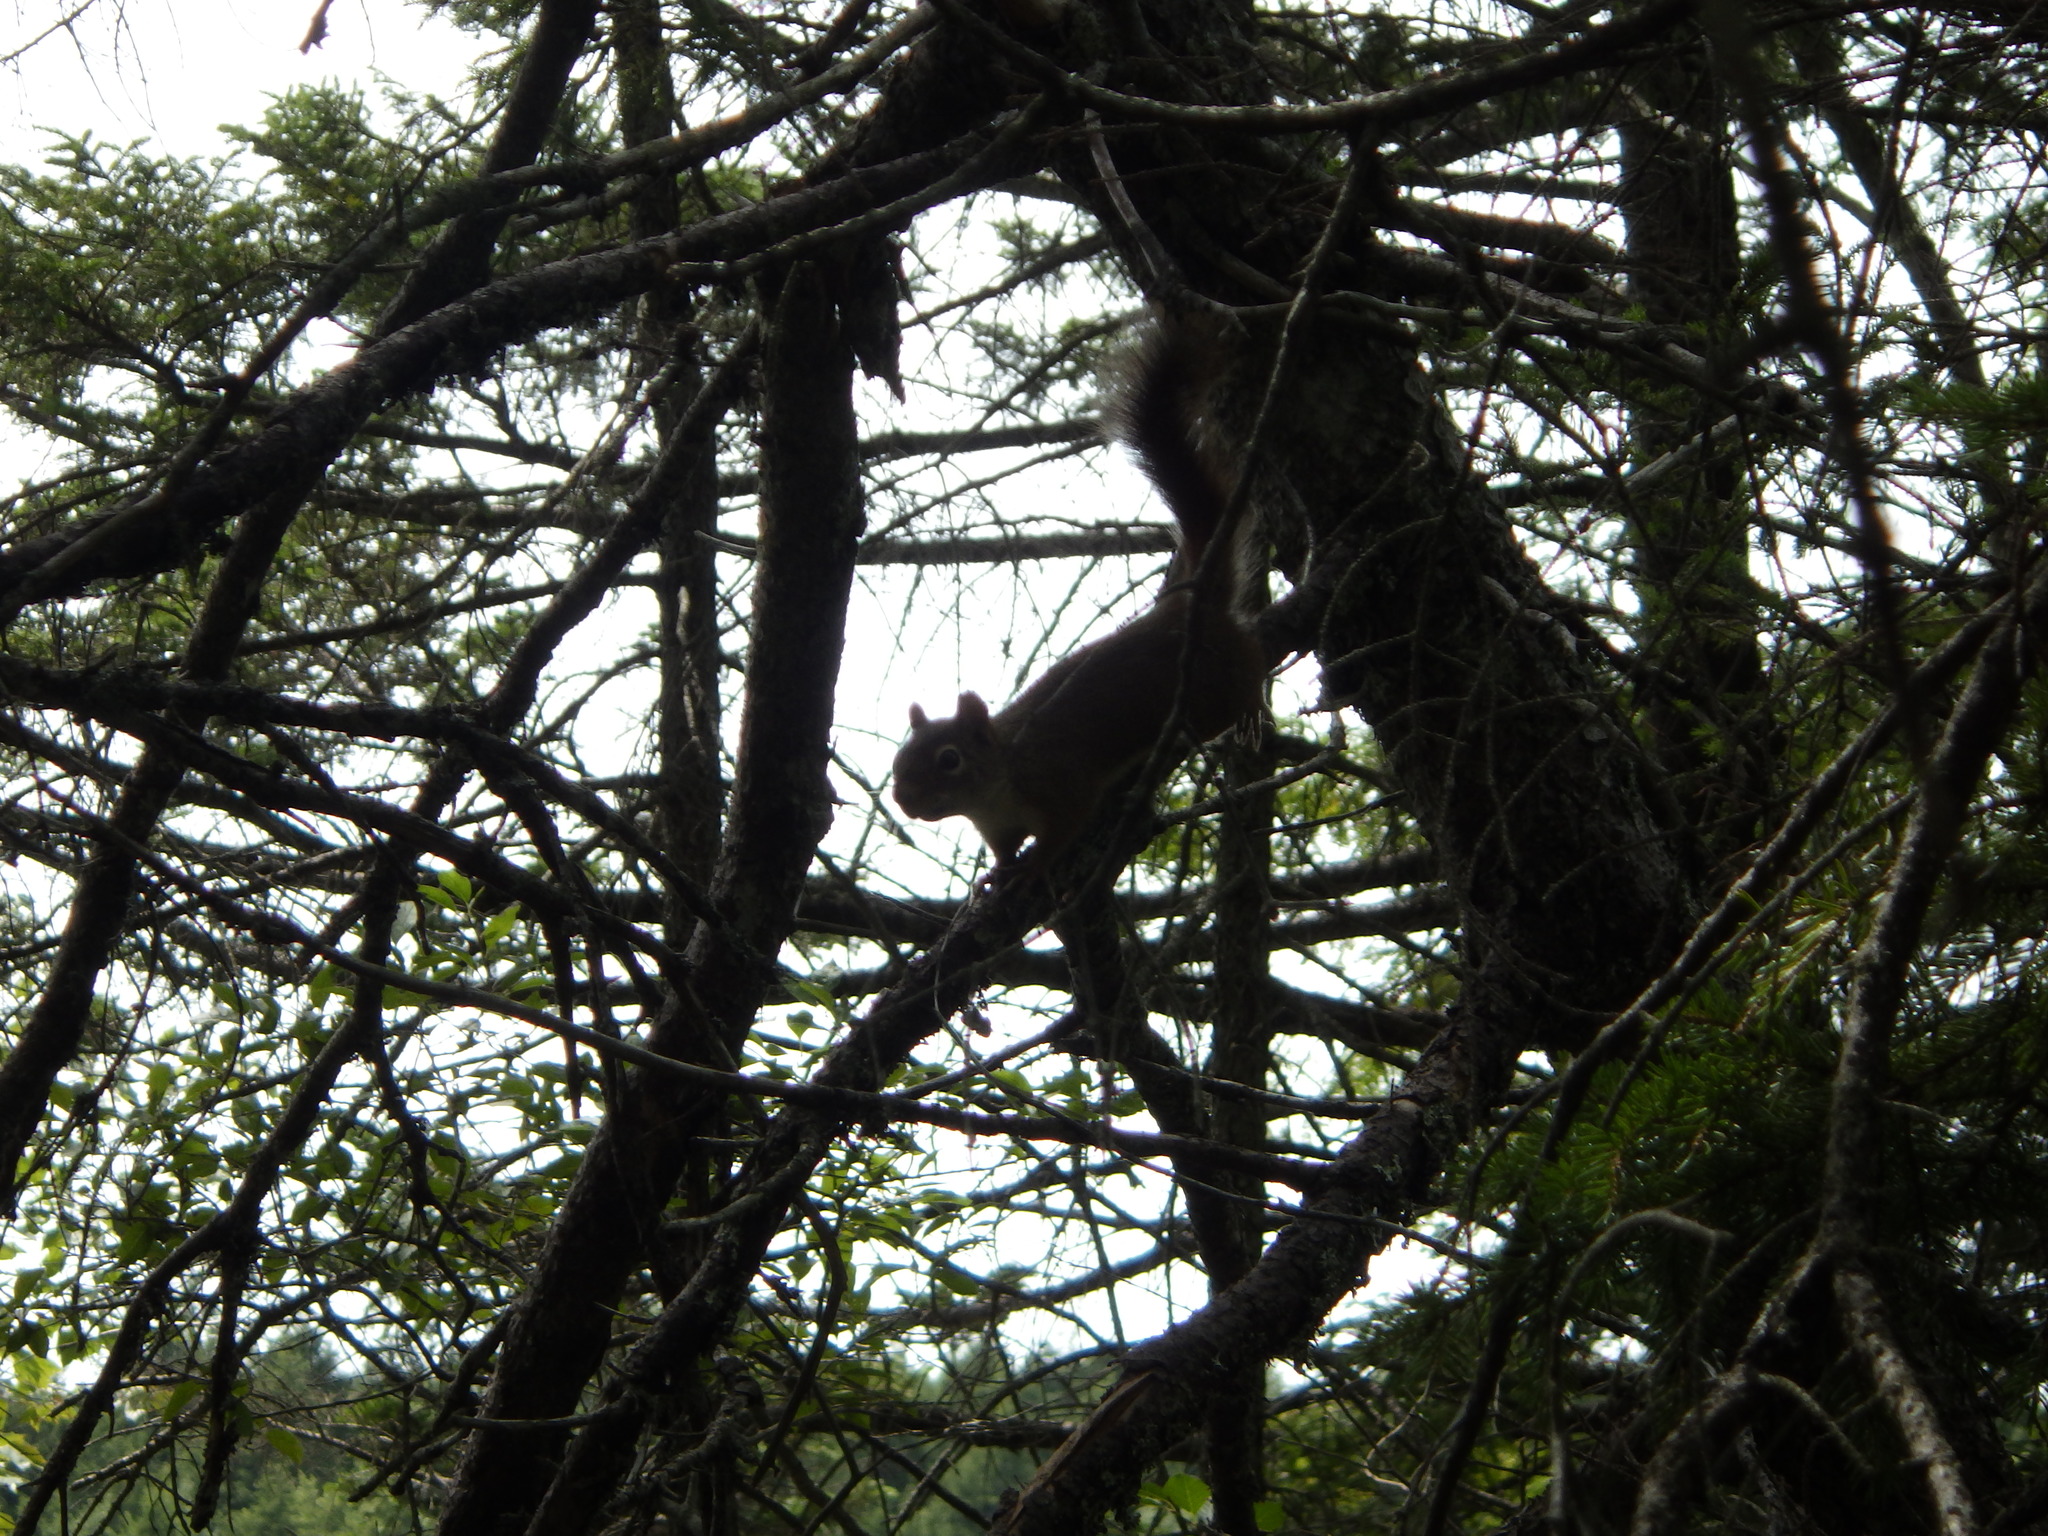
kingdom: Animalia
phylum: Chordata
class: Mammalia
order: Rodentia
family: Sciuridae
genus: Tamiasciurus
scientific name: Tamiasciurus hudsonicus
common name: Red squirrel
